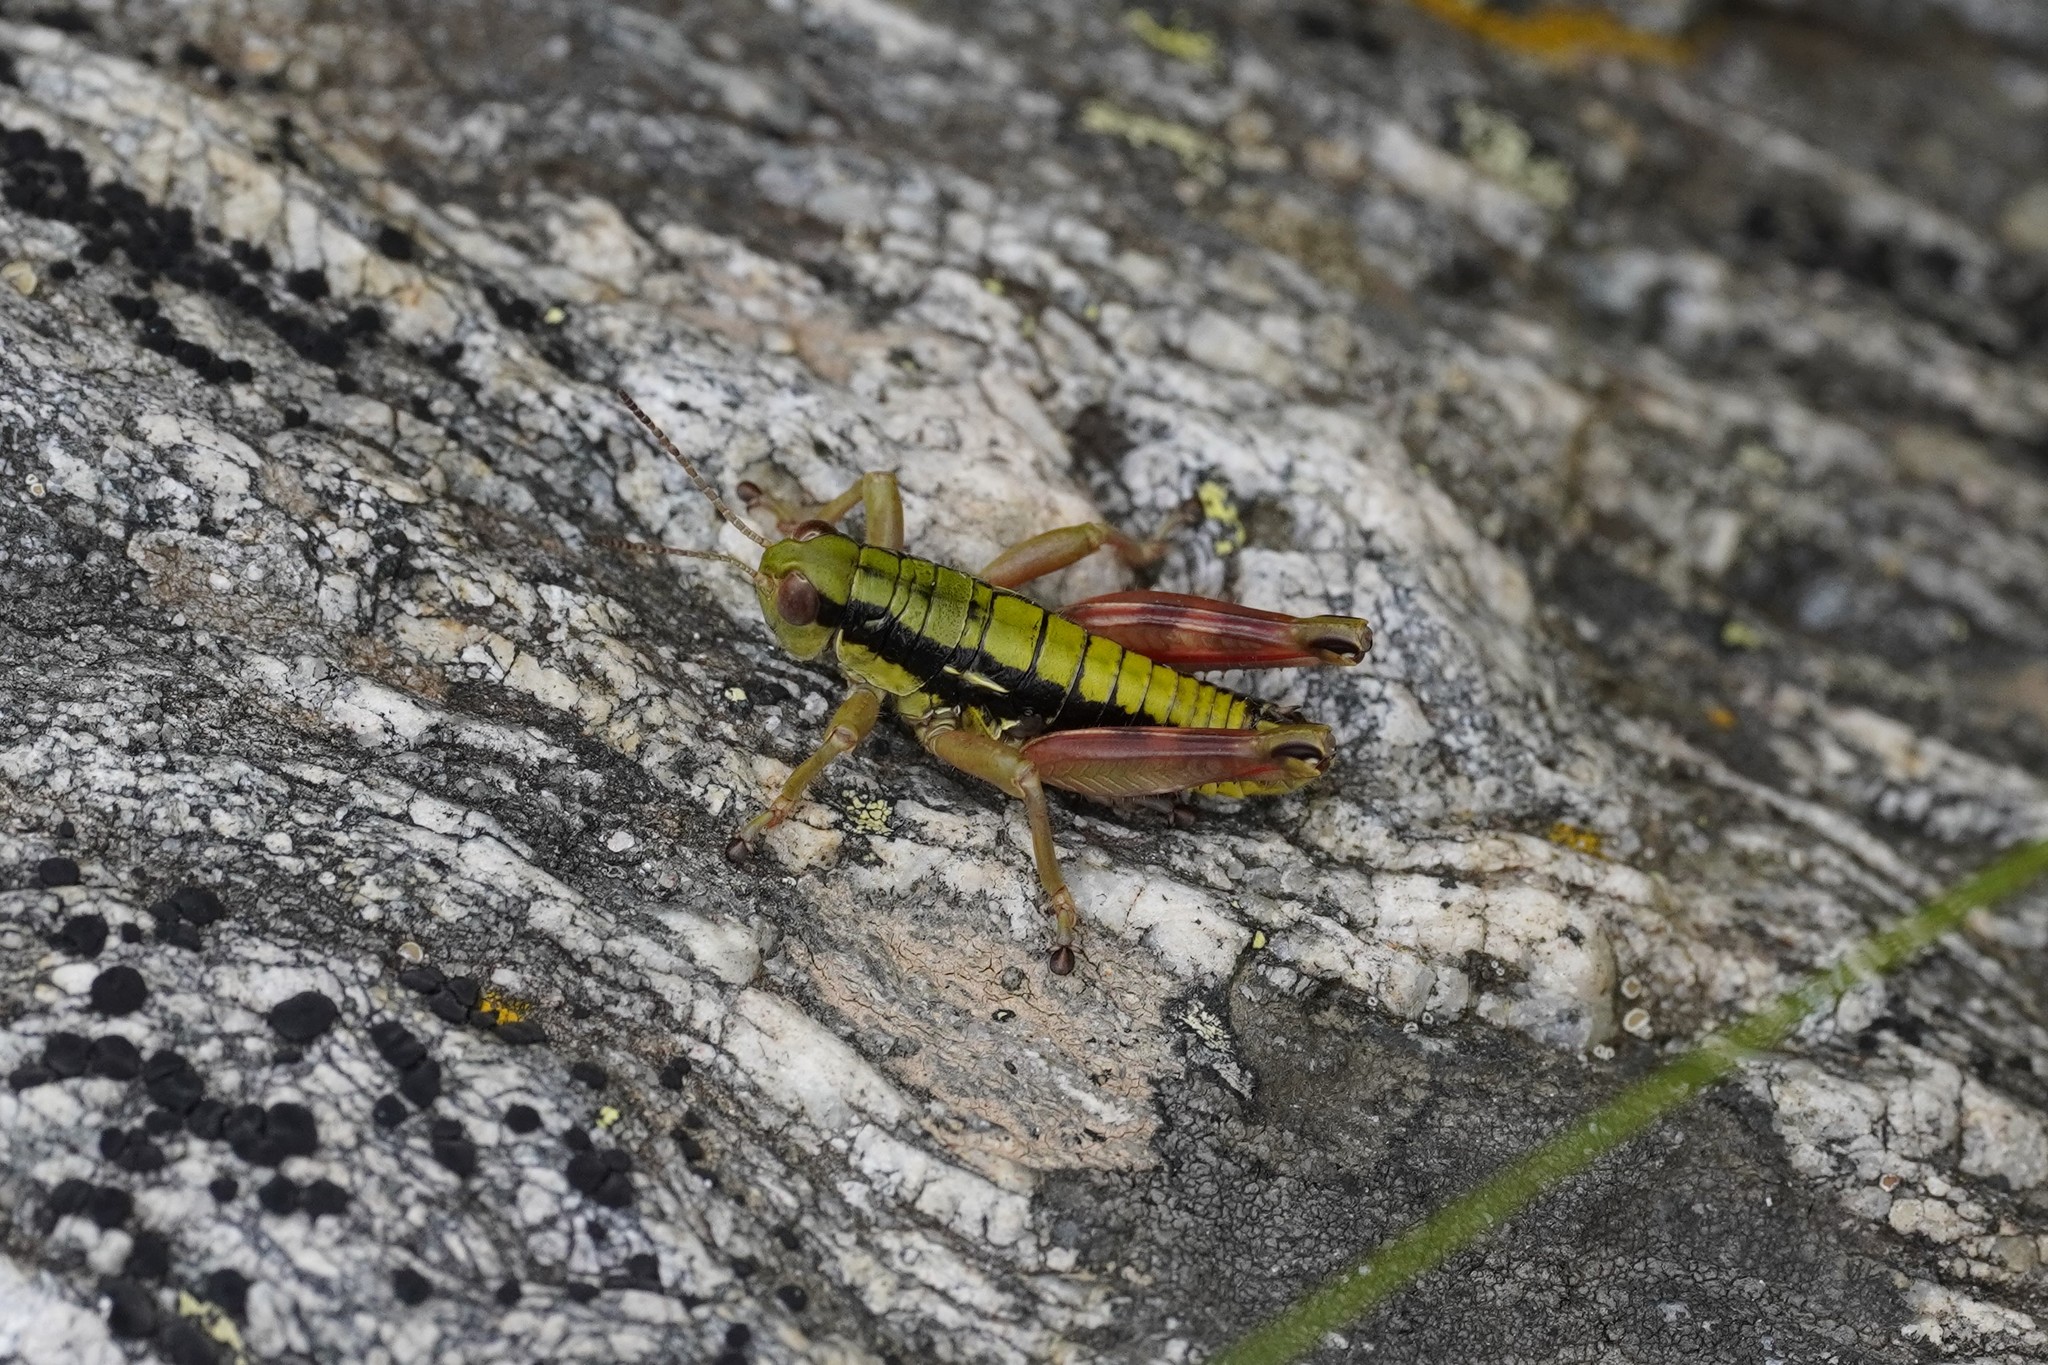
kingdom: Animalia
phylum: Arthropoda
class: Insecta
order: Orthoptera
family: Acrididae
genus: Epipodisma
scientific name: Epipodisma pedemontana
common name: Piedmont mountain grasshopper
